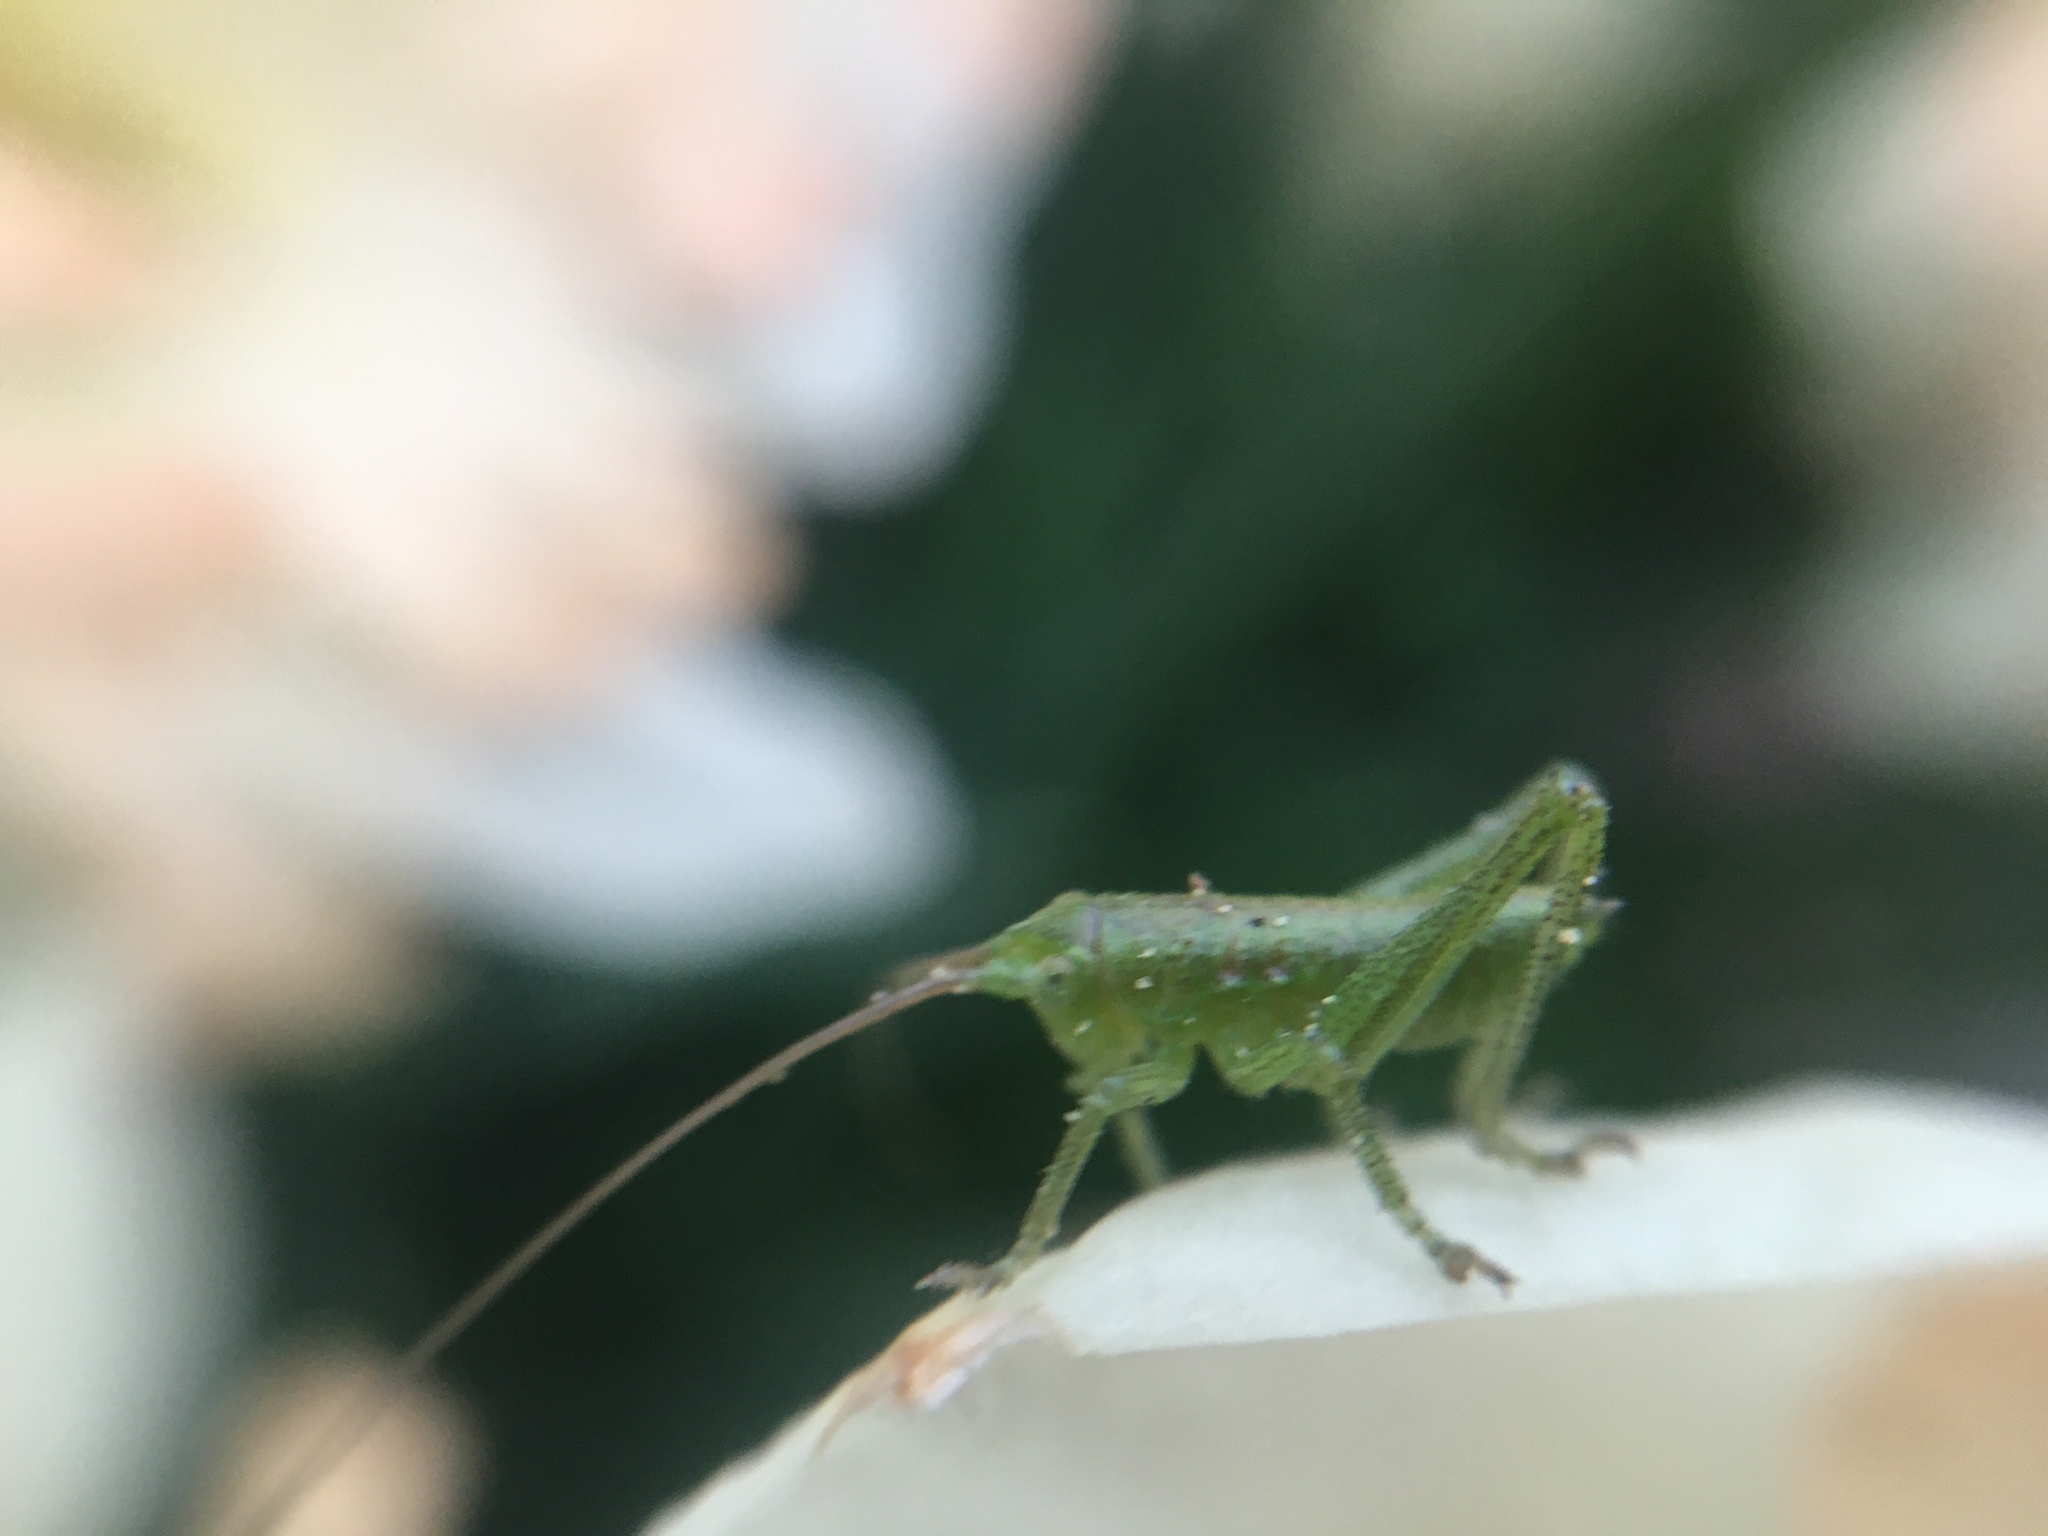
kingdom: Animalia
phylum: Arthropoda
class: Insecta
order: Orthoptera
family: Tettigoniidae
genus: Tettigonia
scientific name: Tettigonia cantans
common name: Upland green bush-cricket
